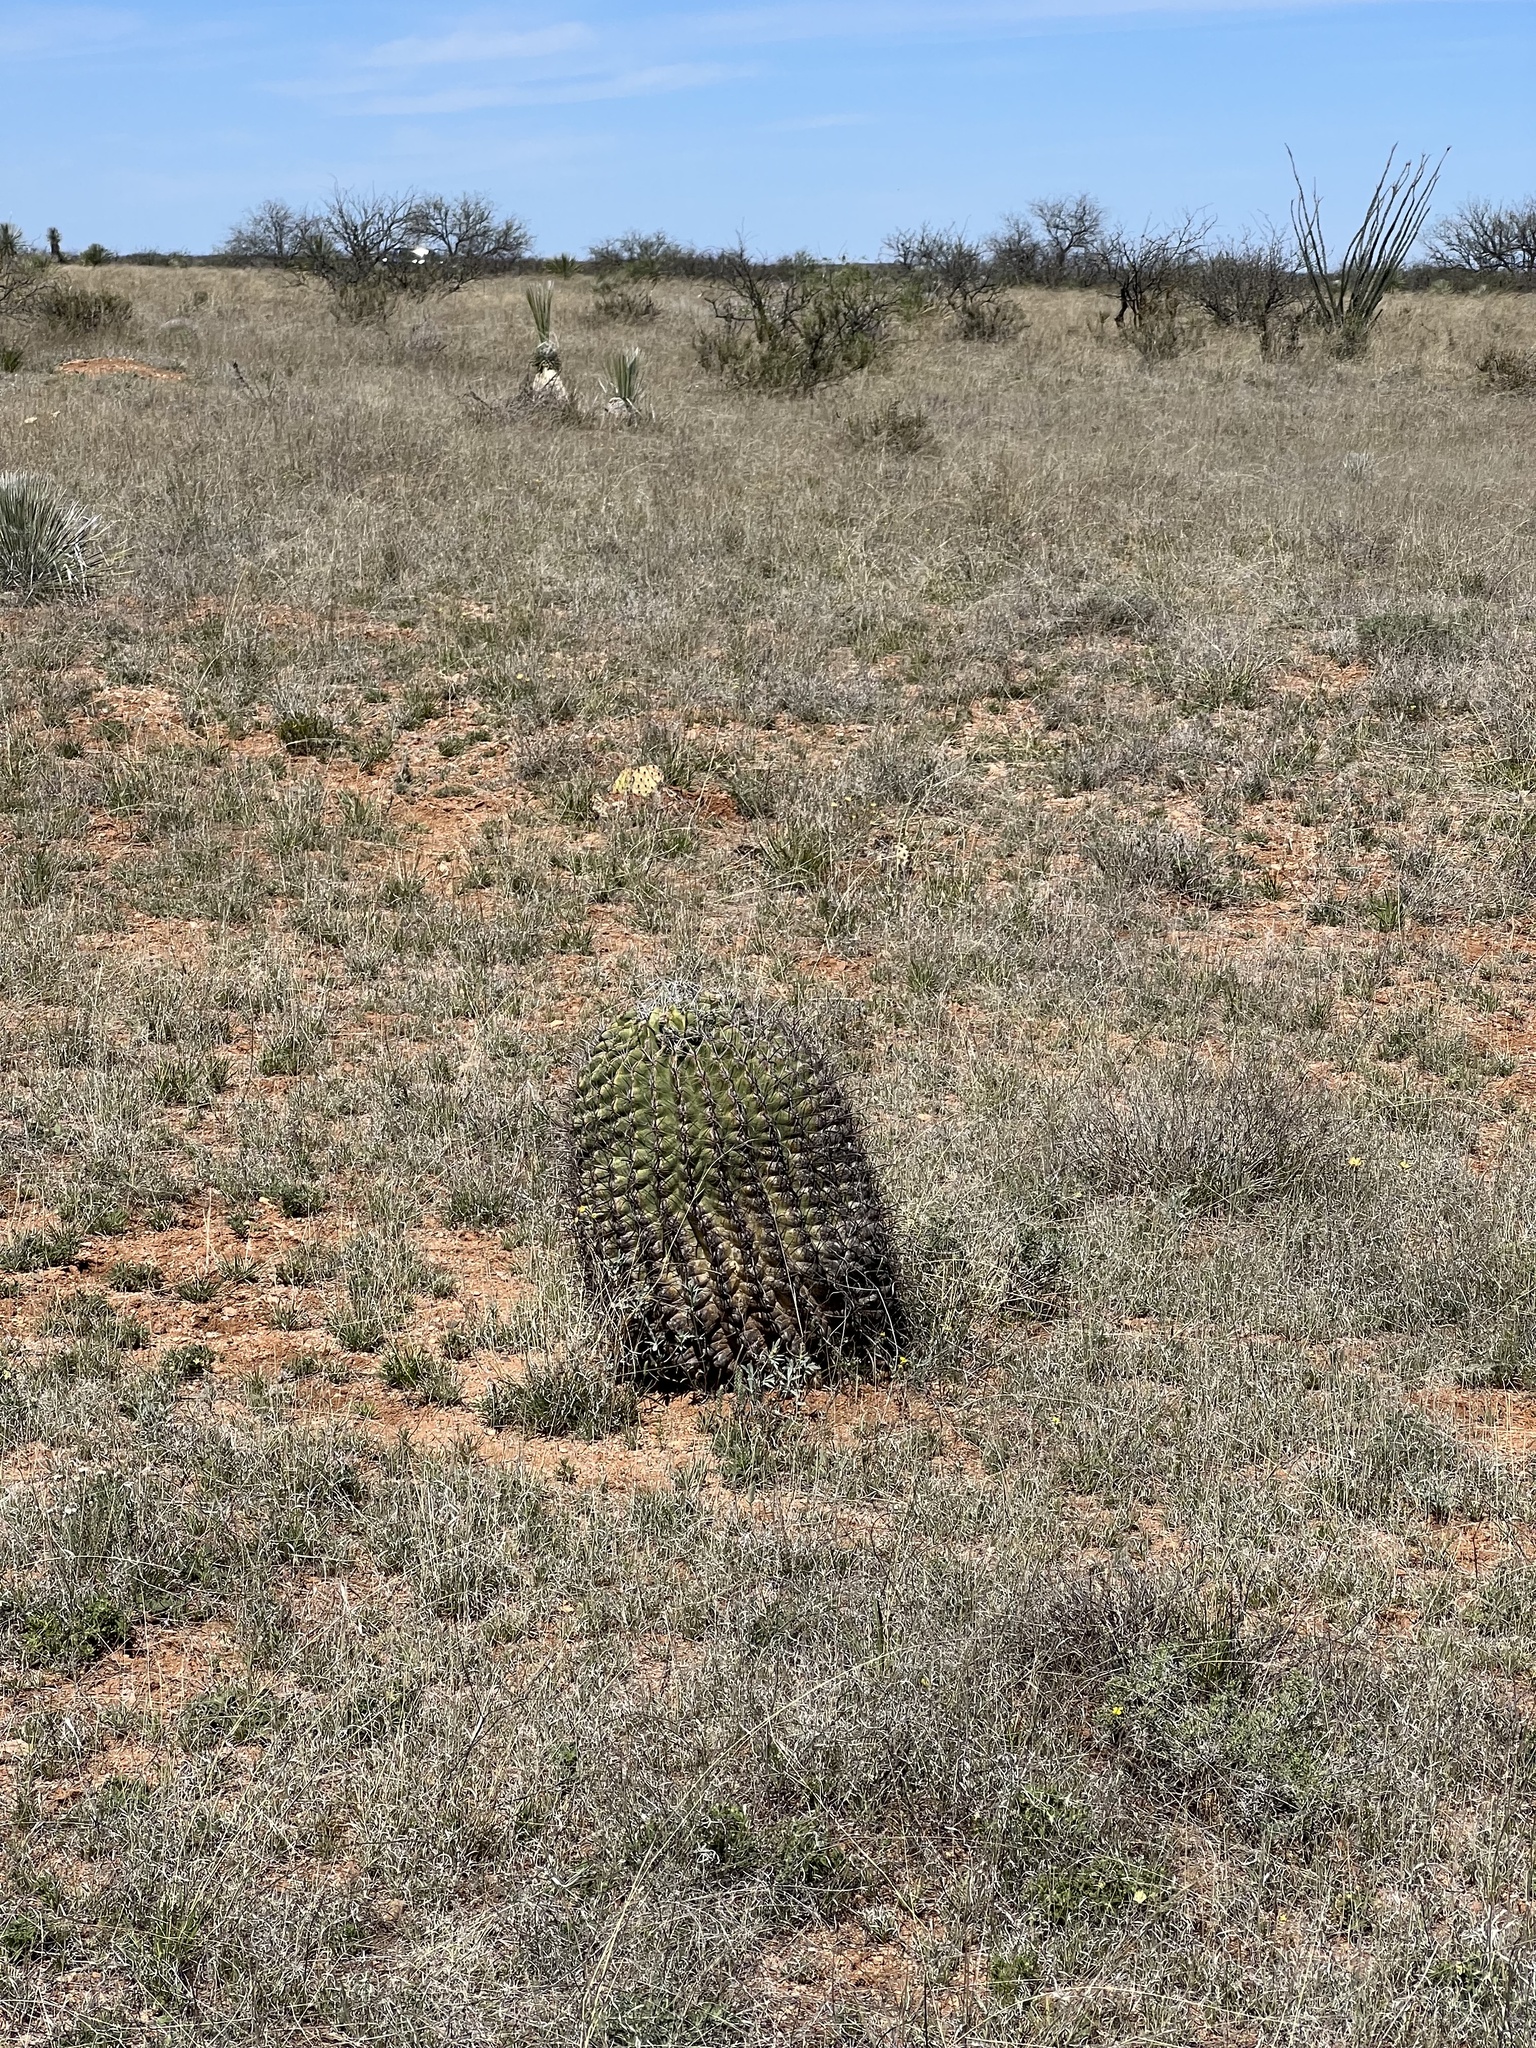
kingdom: Plantae
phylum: Tracheophyta
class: Magnoliopsida
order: Caryophyllales
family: Cactaceae
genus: Ferocactus
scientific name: Ferocactus wislizeni
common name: Candy barrel cactus
